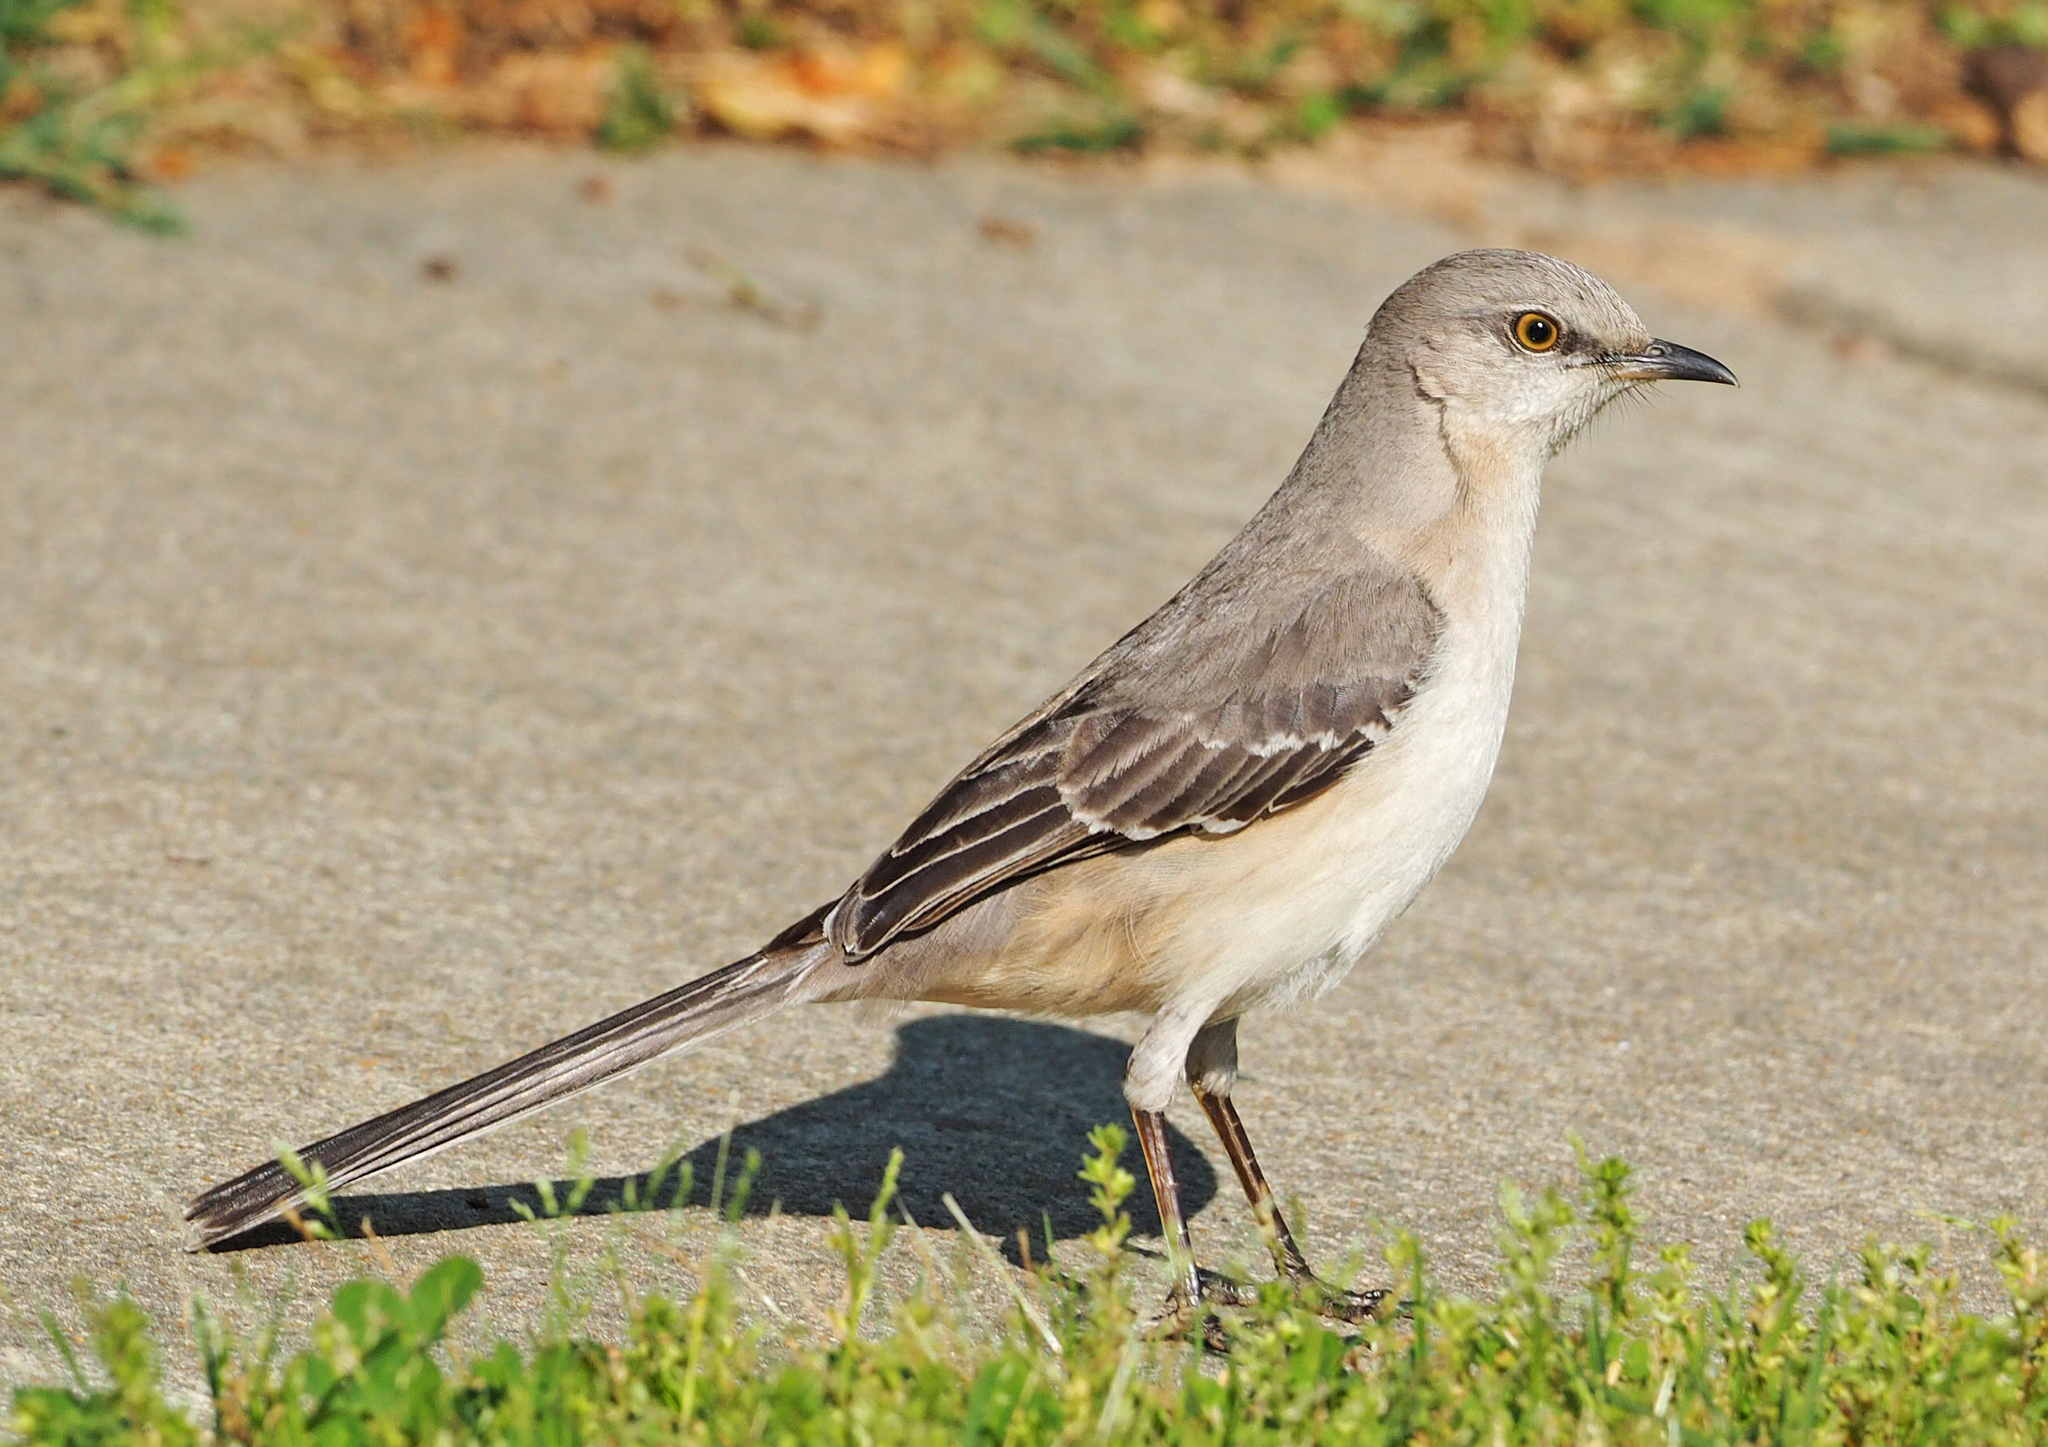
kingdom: Animalia
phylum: Chordata
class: Aves
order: Passeriformes
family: Mimidae
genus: Mimus
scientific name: Mimus polyglottos
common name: Northern mockingbird
